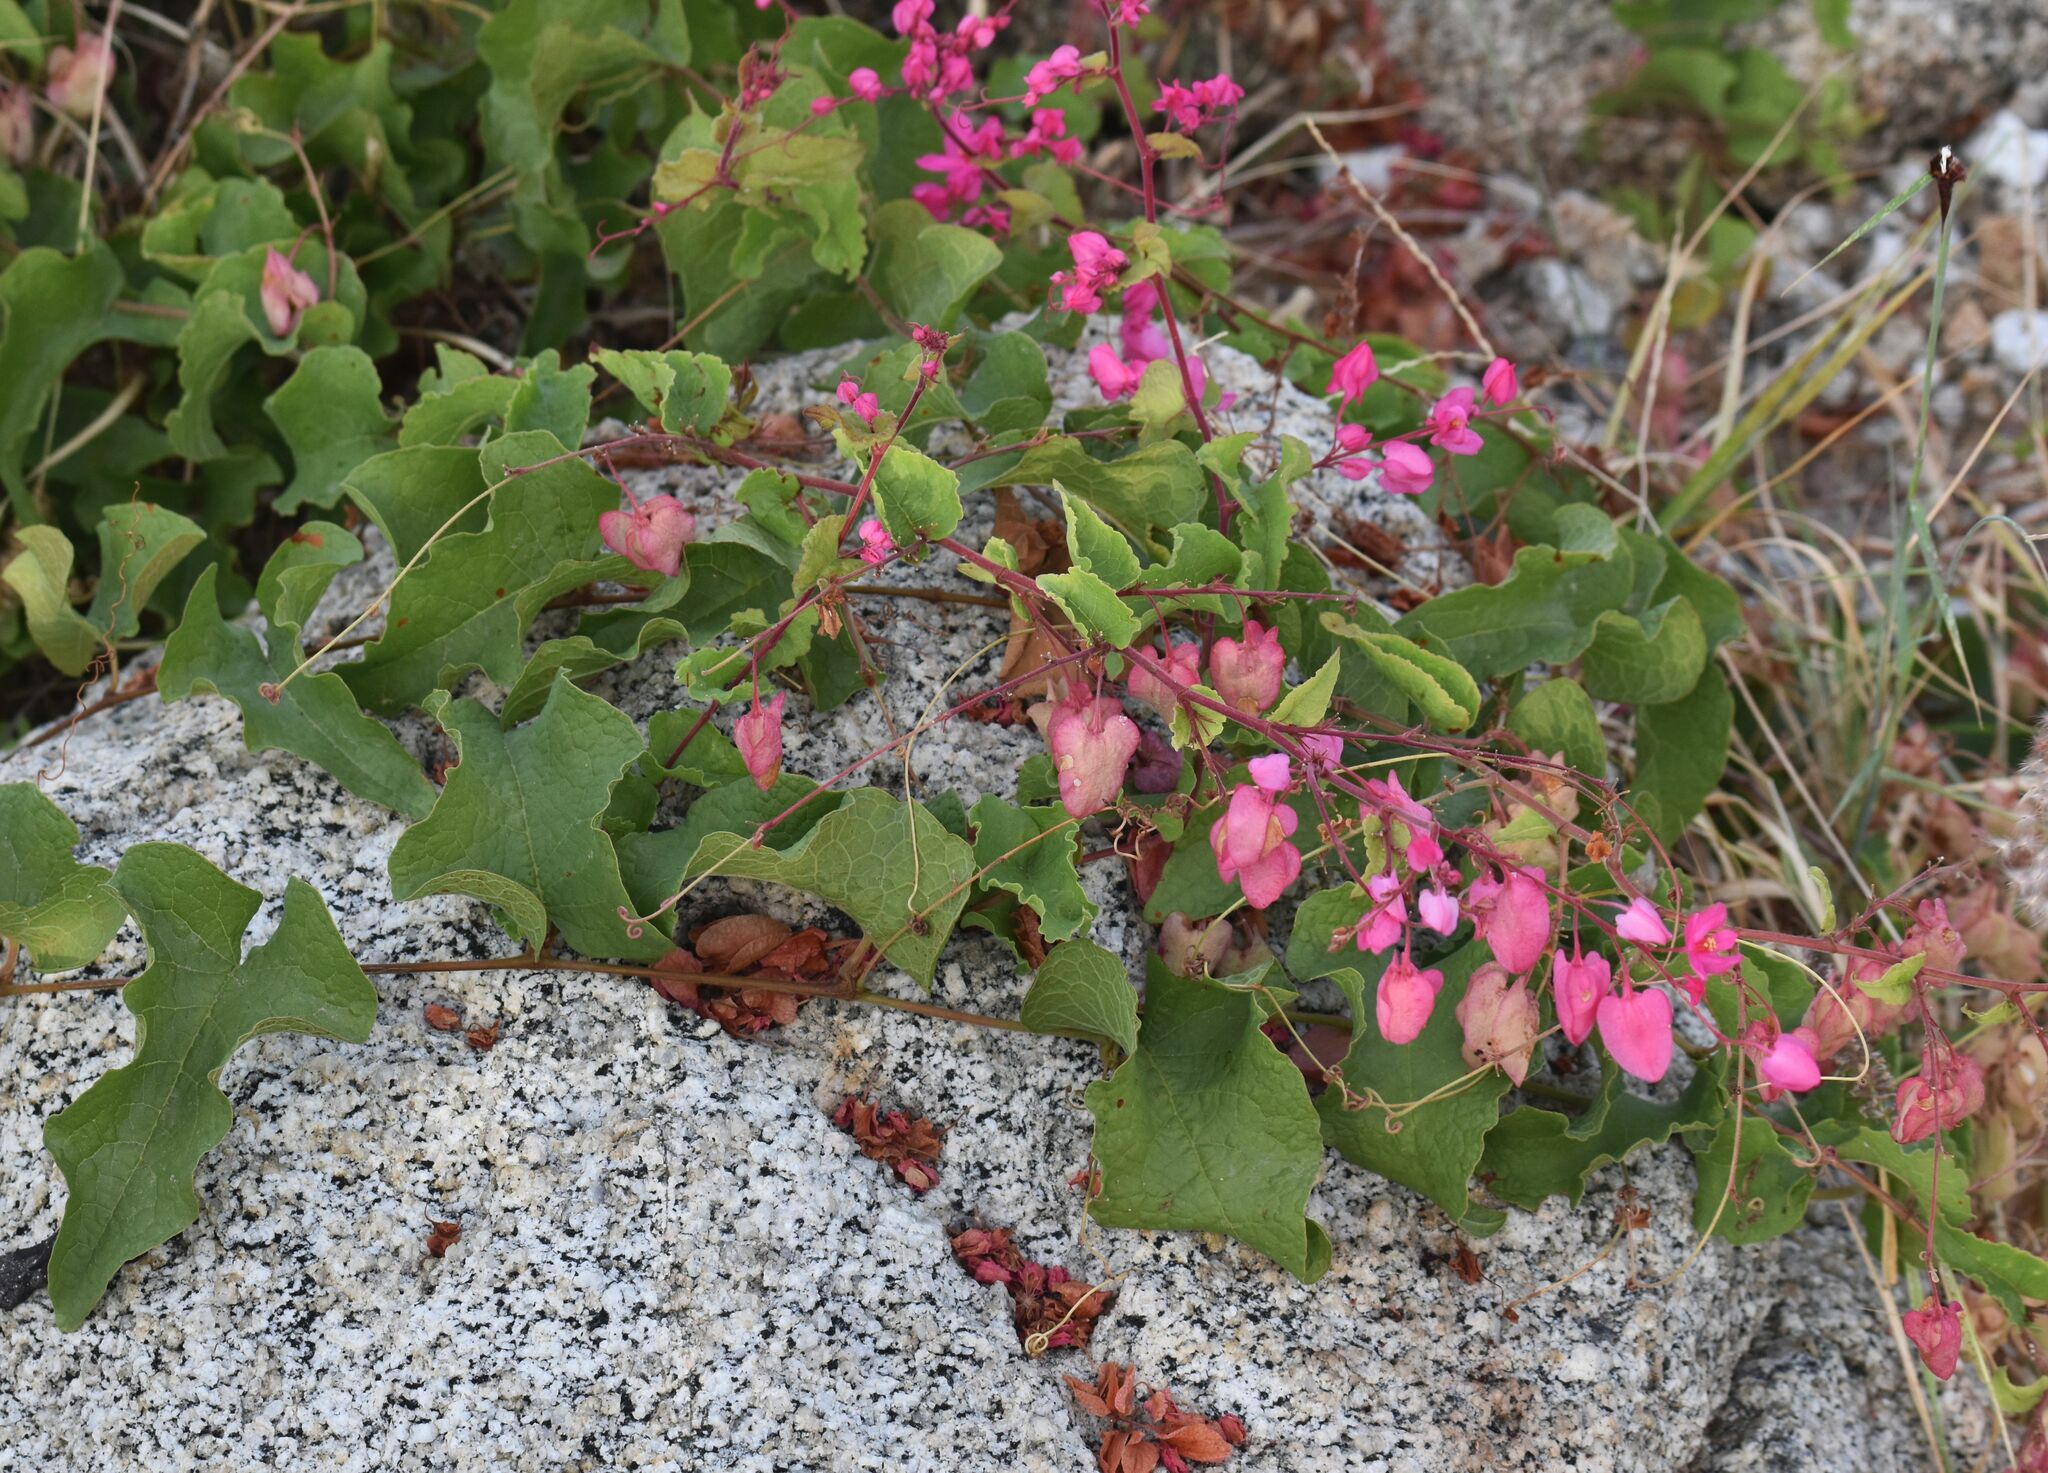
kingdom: Plantae
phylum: Tracheophyta
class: Magnoliopsida
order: Caryophyllales
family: Polygonaceae
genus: Antigonon
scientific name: Antigonon leptopus
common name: Coral vine
